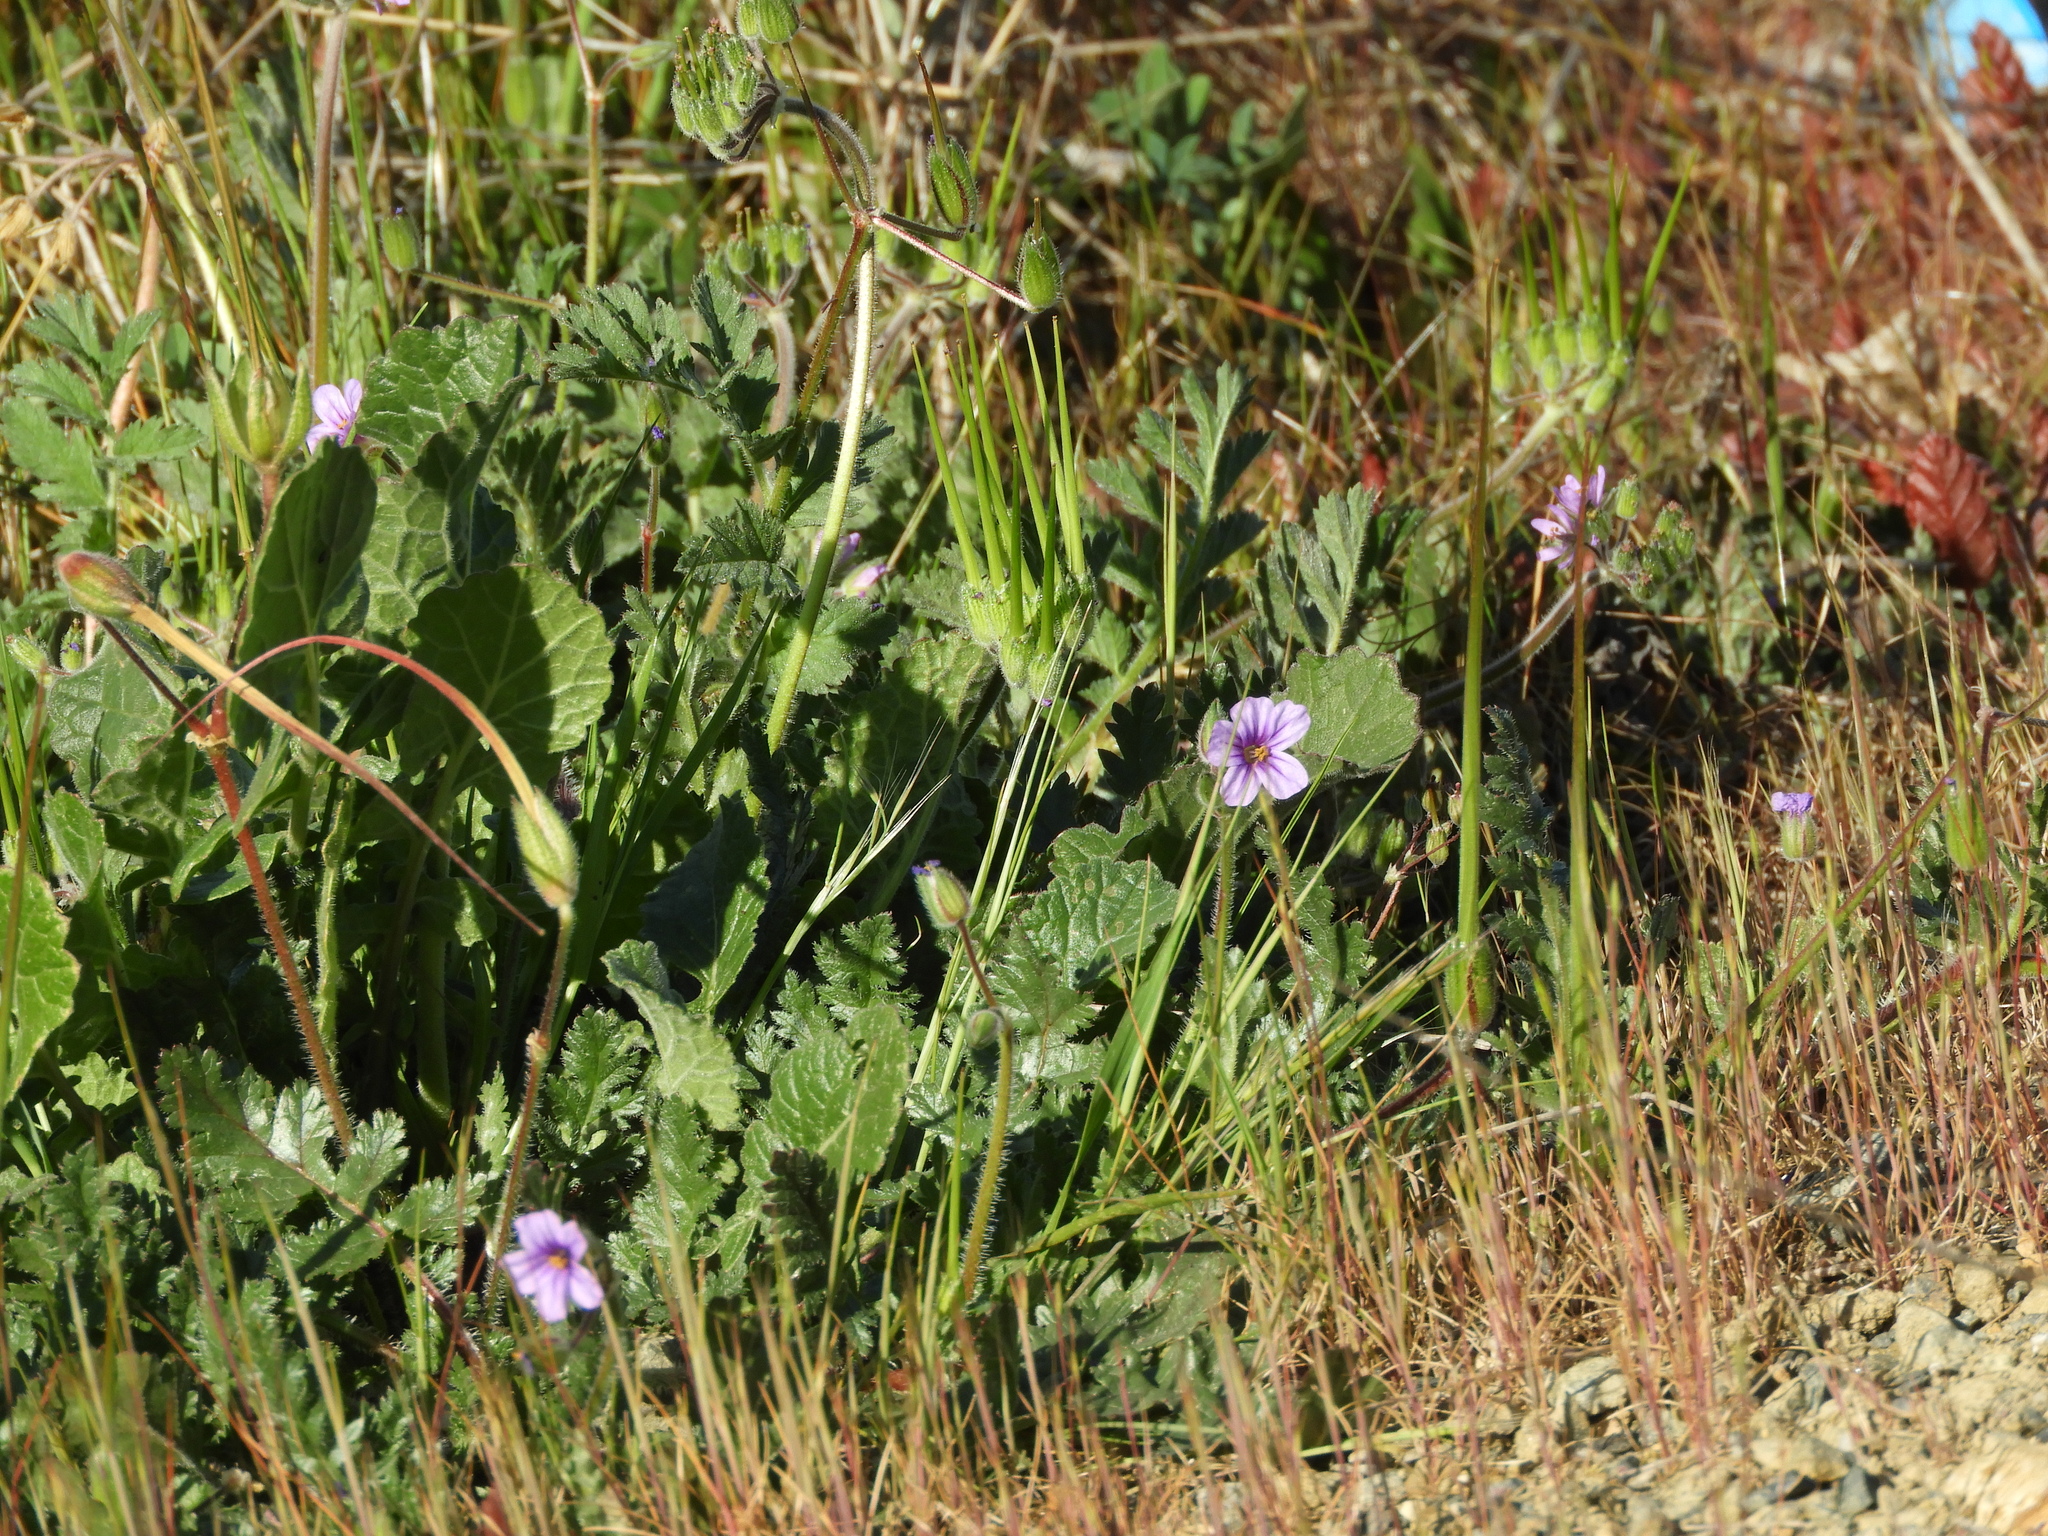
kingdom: Plantae
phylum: Tracheophyta
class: Magnoliopsida
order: Geraniales
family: Geraniaceae
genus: Erodium
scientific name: Erodium botrys
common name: Mediterranean stork's-bill
